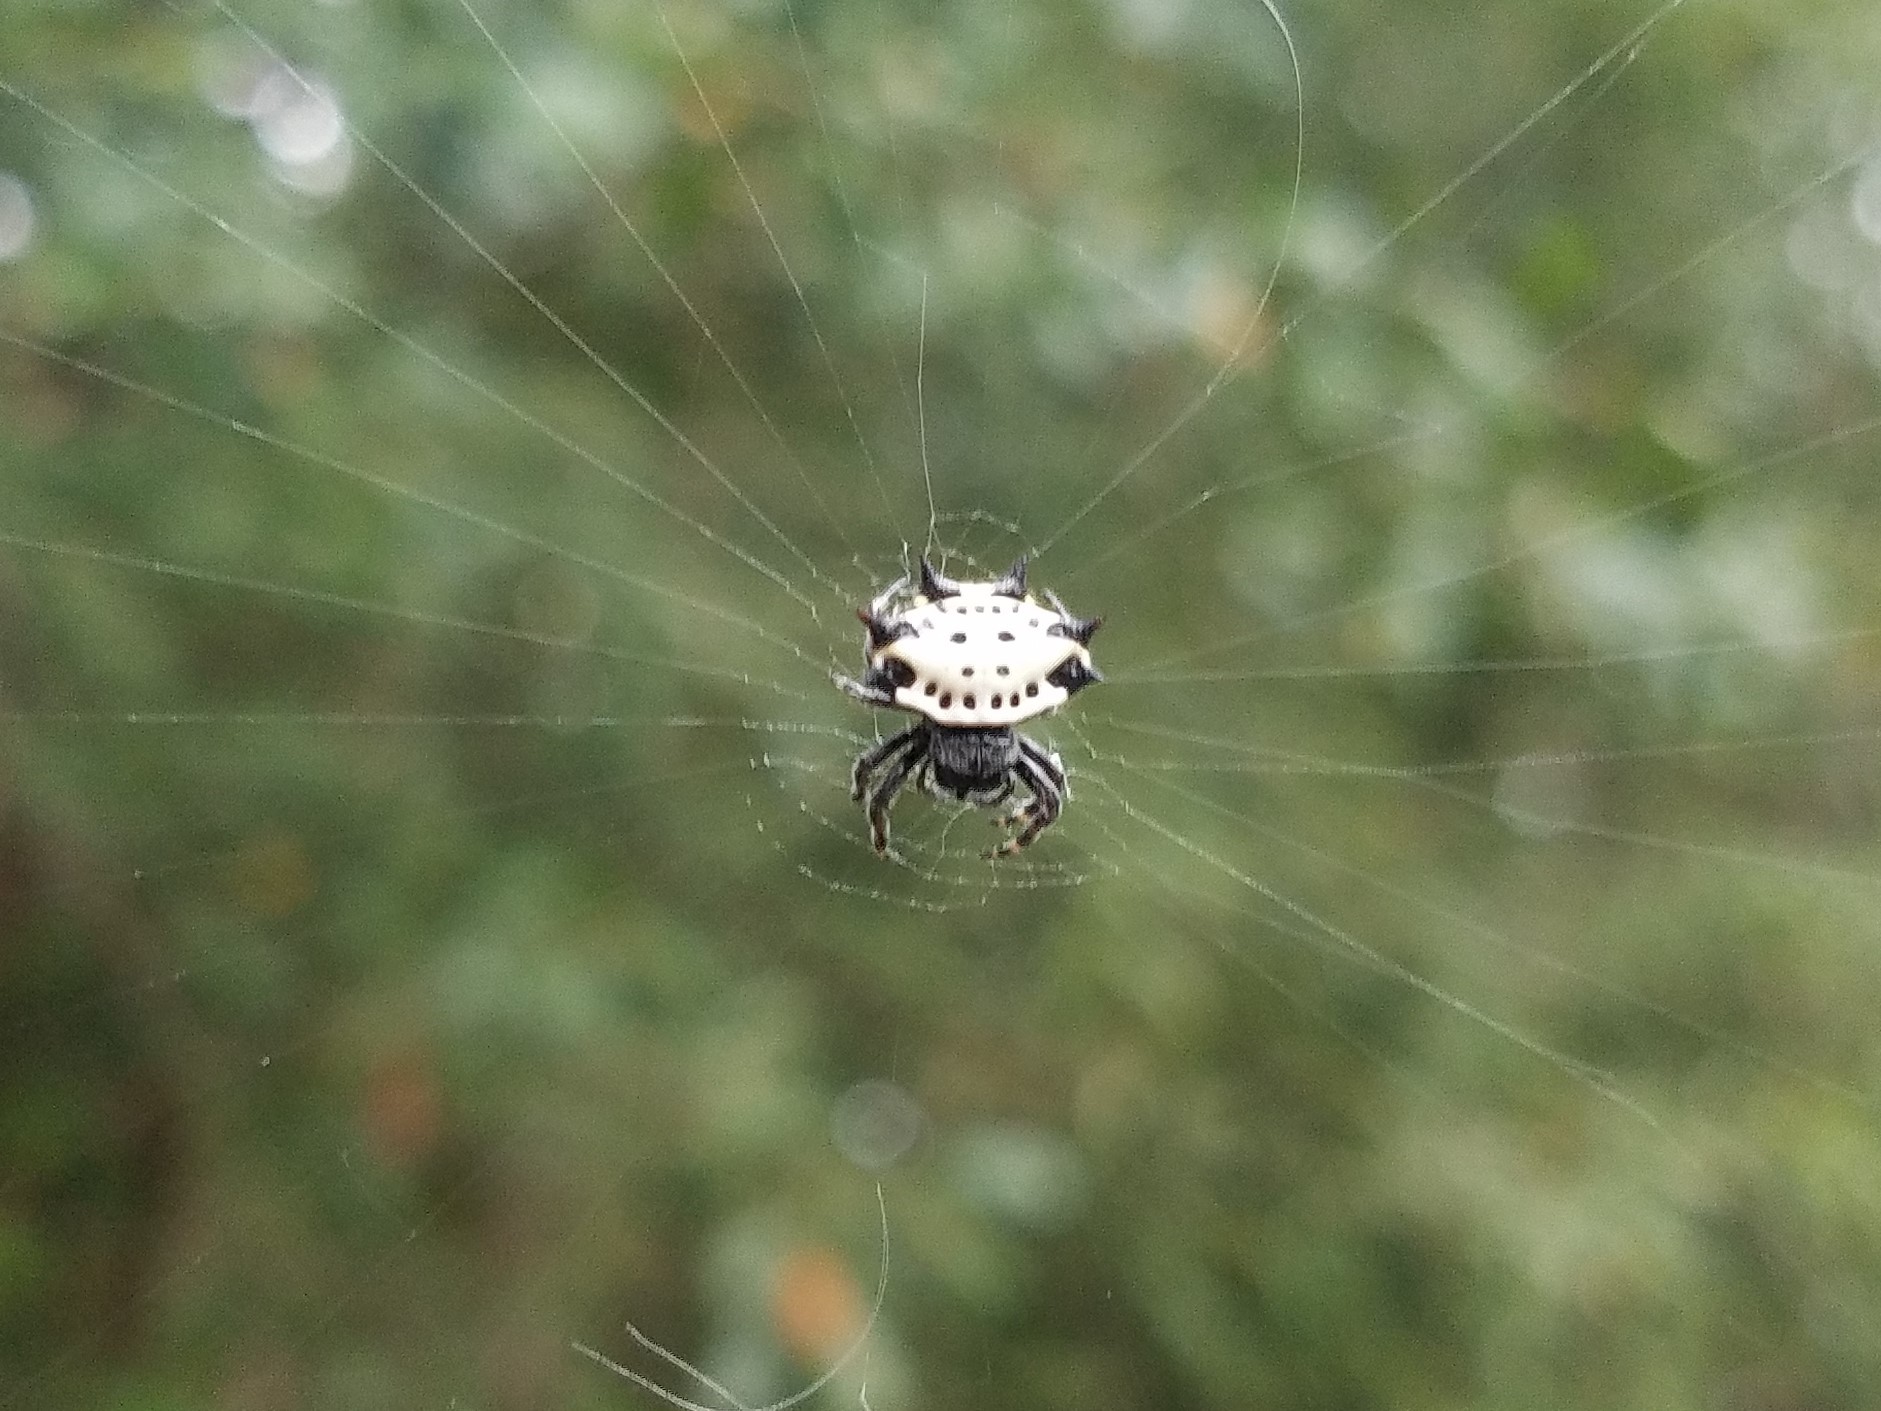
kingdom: Animalia
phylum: Arthropoda
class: Arachnida
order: Araneae
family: Araneidae
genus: Gasteracantha
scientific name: Gasteracantha cancriformis
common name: Orb weavers
